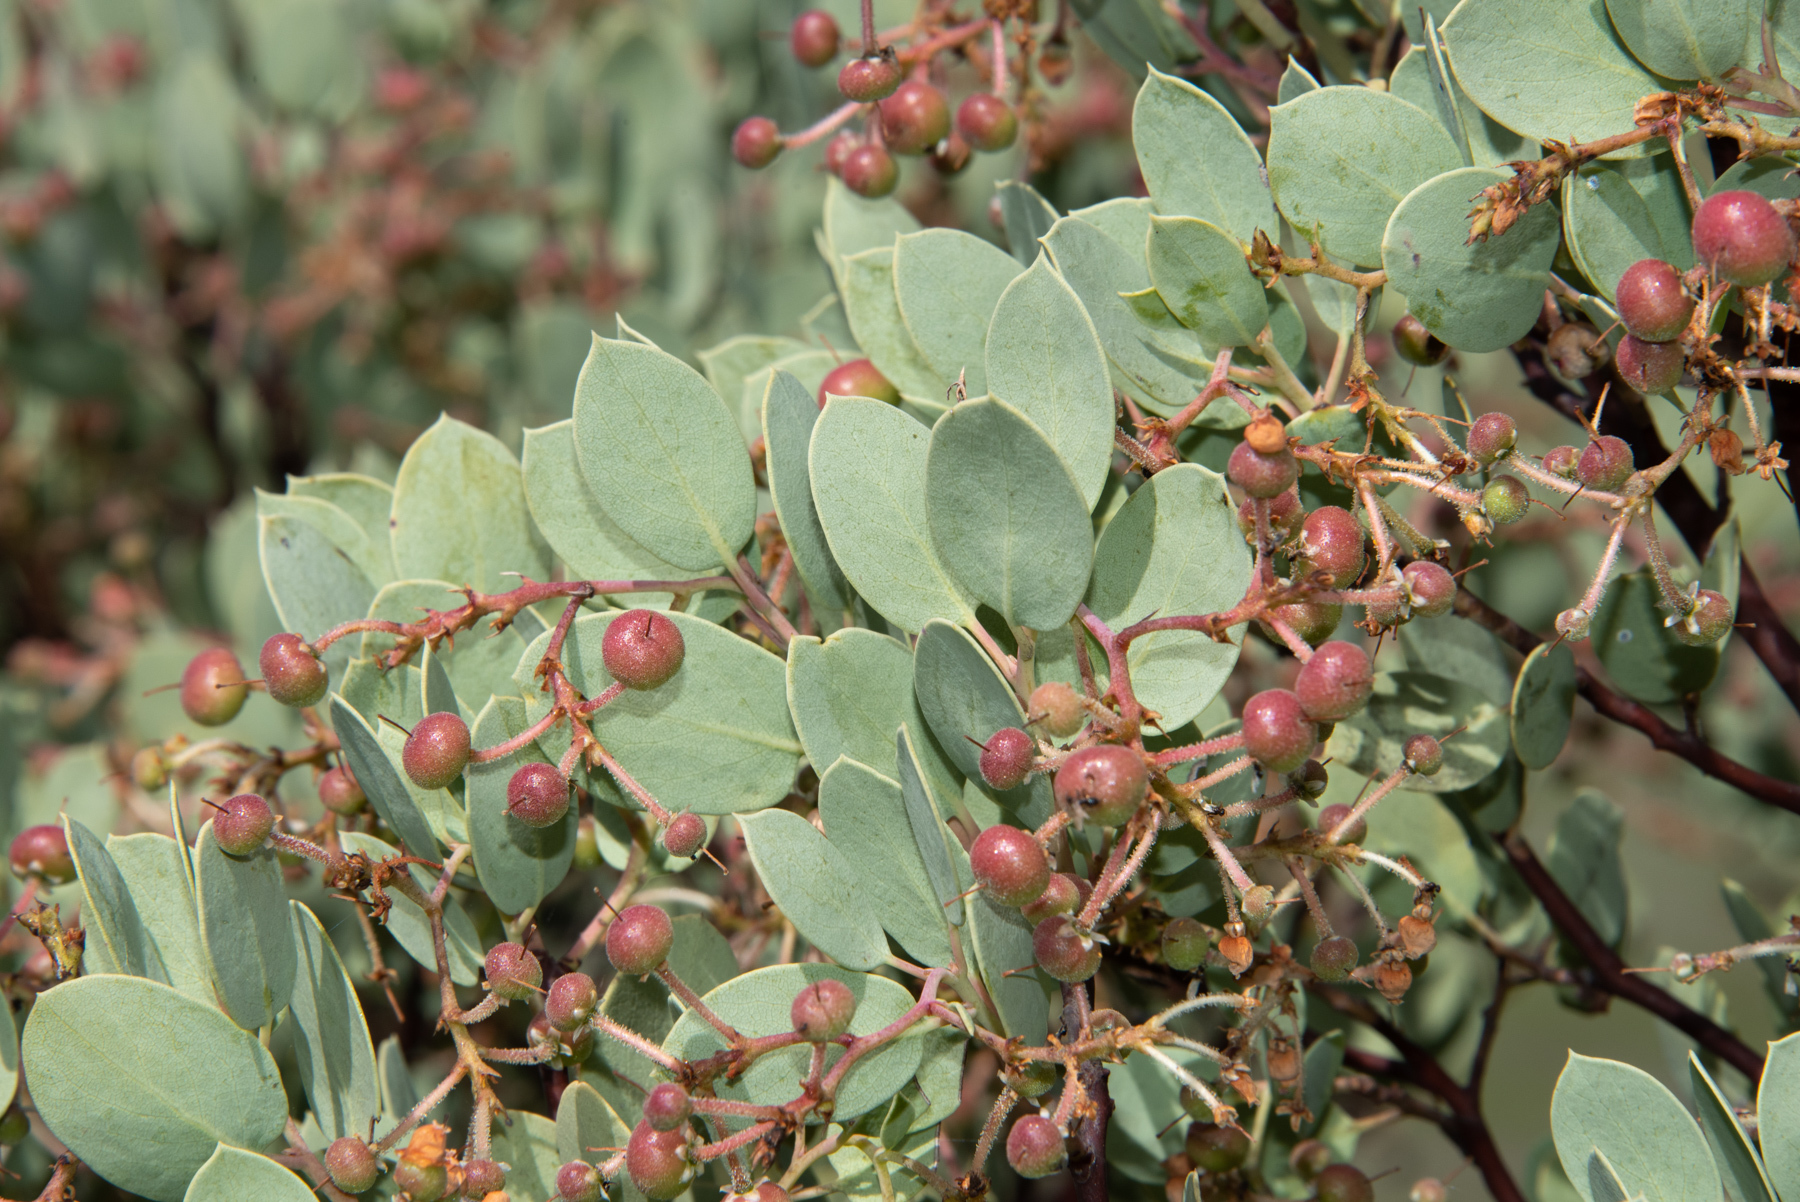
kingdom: Plantae
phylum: Tracheophyta
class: Magnoliopsida
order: Ericales
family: Ericaceae
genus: Arctostaphylos
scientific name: Arctostaphylos viscida
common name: White-leaf manzanita
